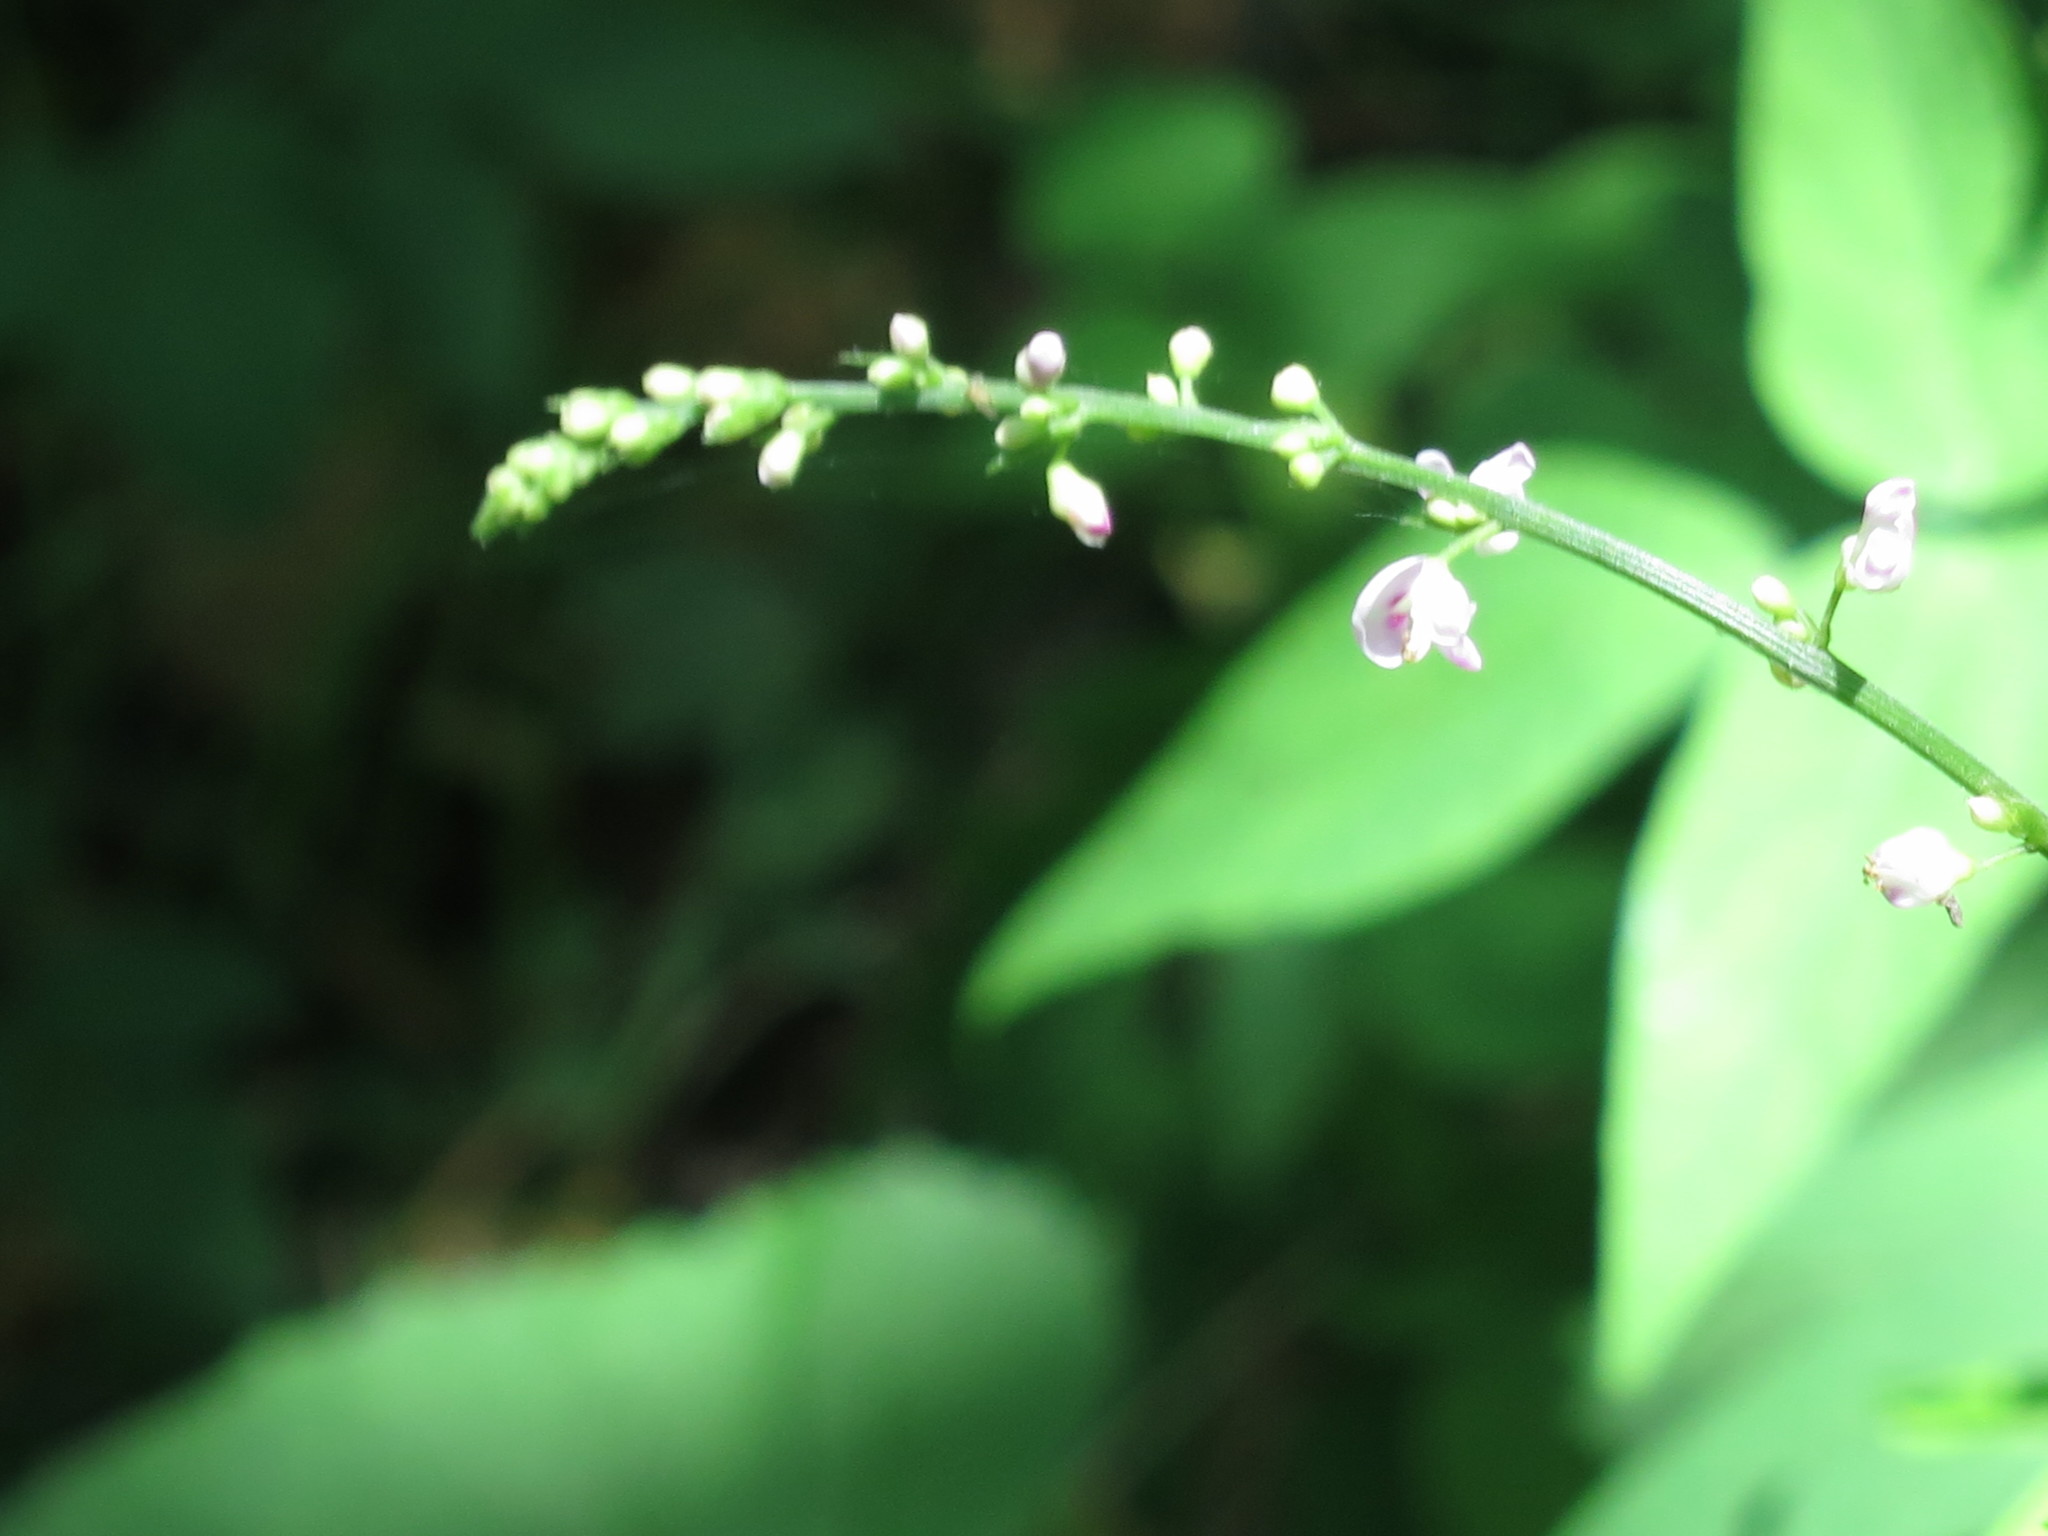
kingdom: Plantae
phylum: Tracheophyta
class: Magnoliopsida
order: Fabales
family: Fabaceae
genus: Hylodesmum
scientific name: Hylodesmum podocarpum
